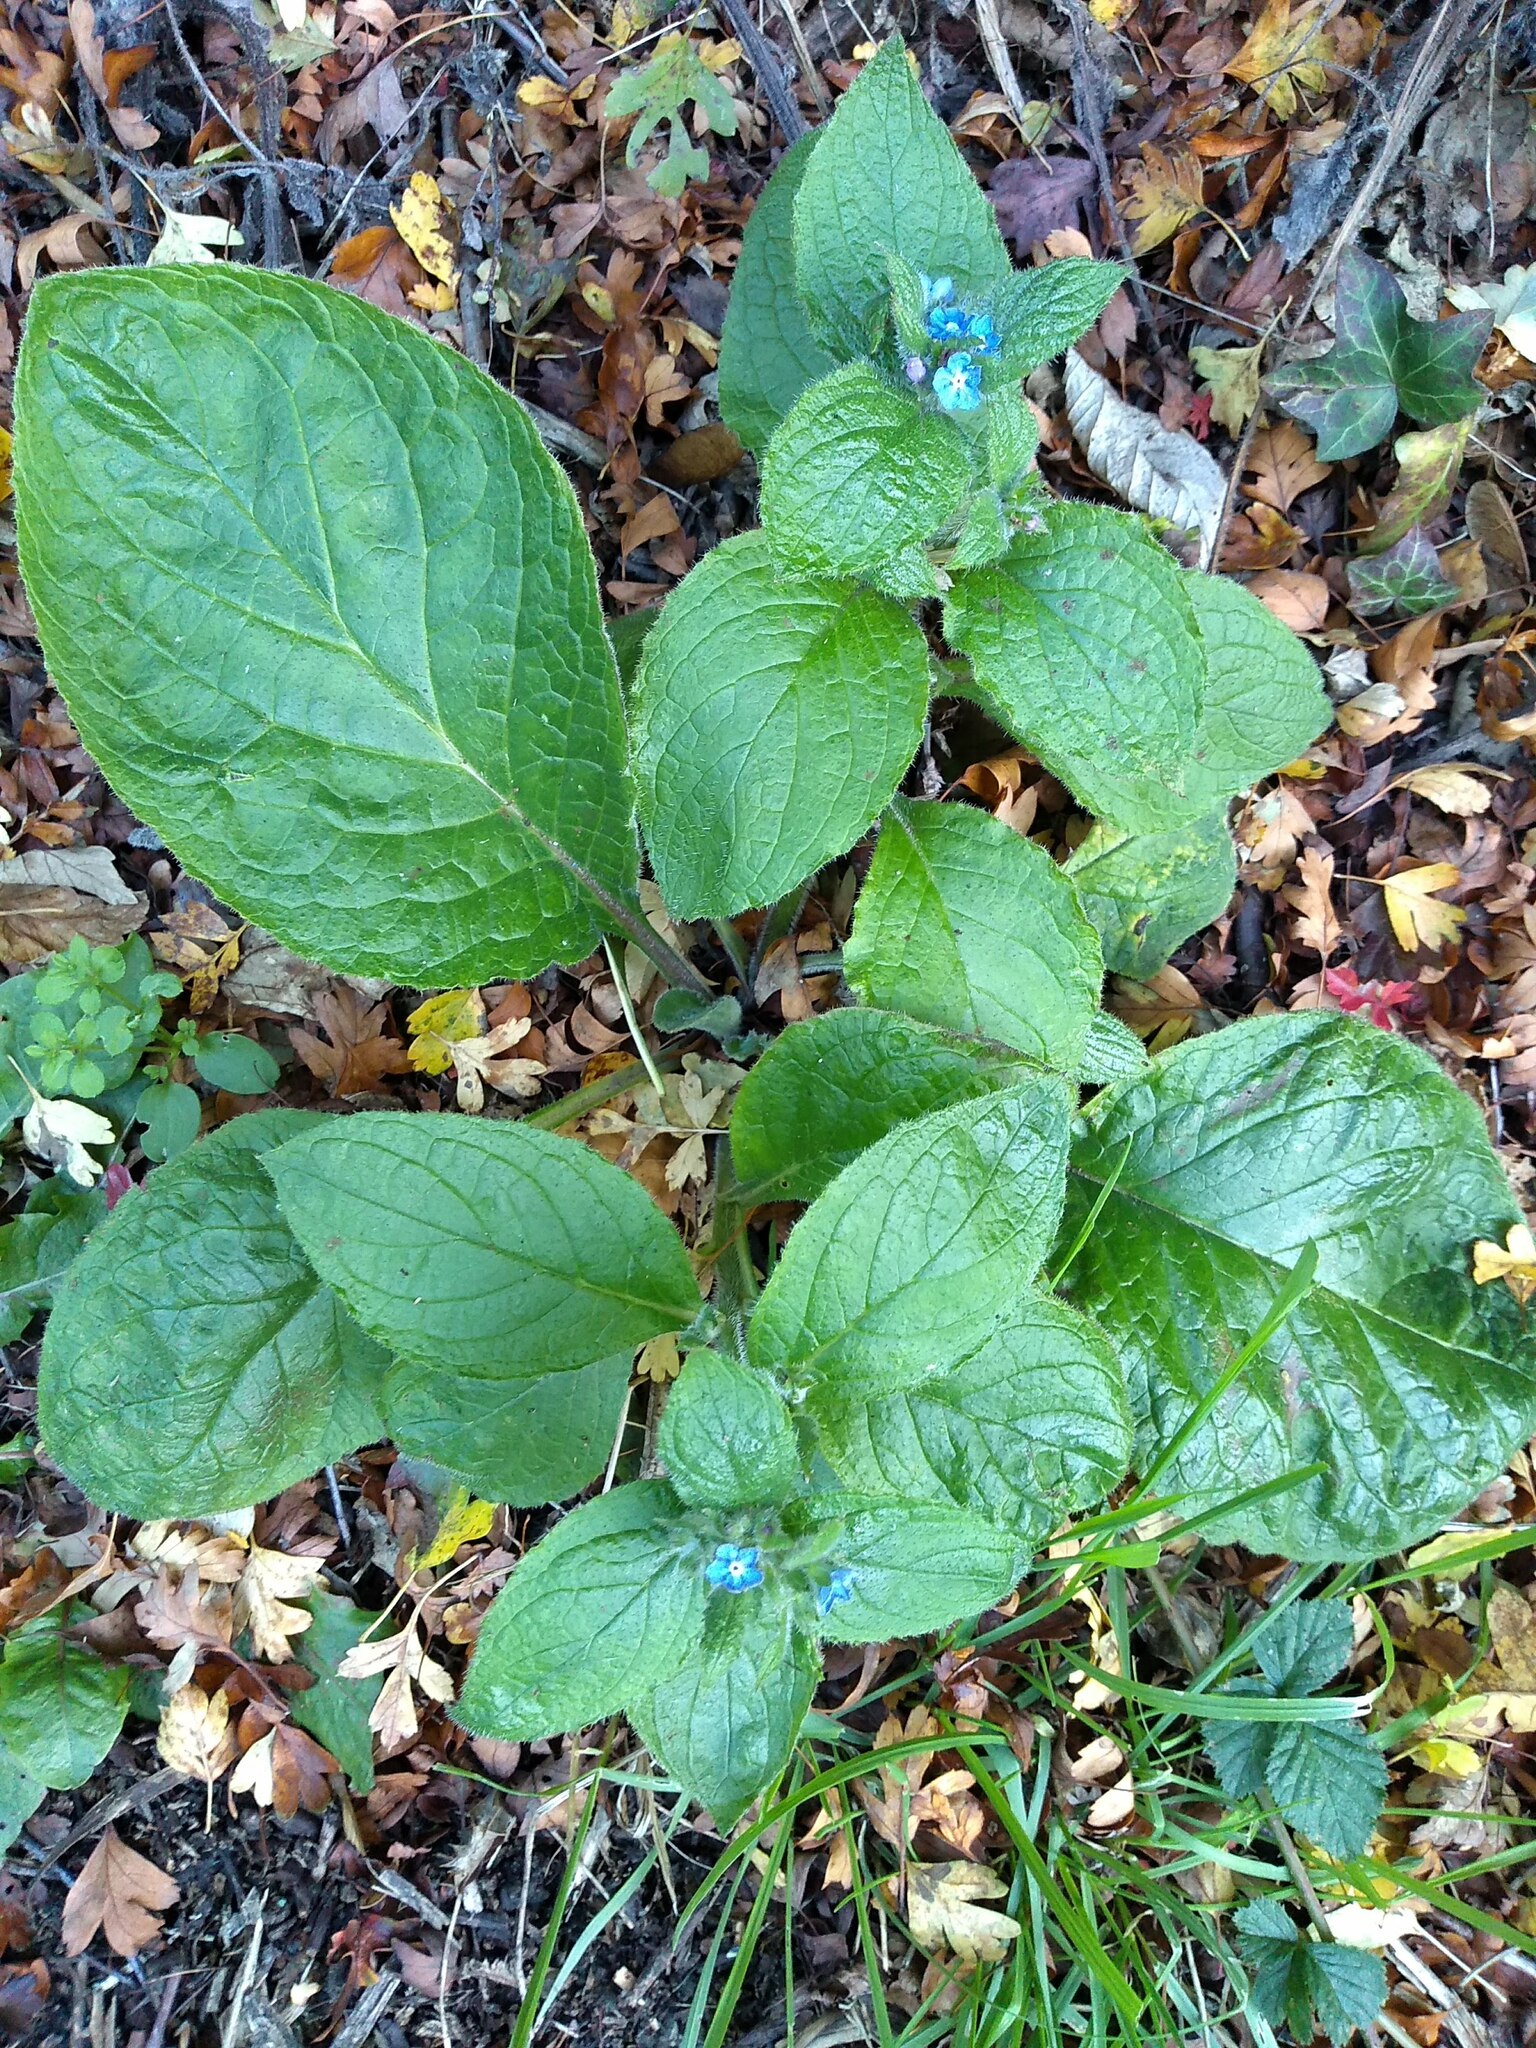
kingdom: Plantae
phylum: Tracheophyta
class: Magnoliopsida
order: Boraginales
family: Boraginaceae
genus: Pentaglottis
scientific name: Pentaglottis sempervirens
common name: Green alkanet
